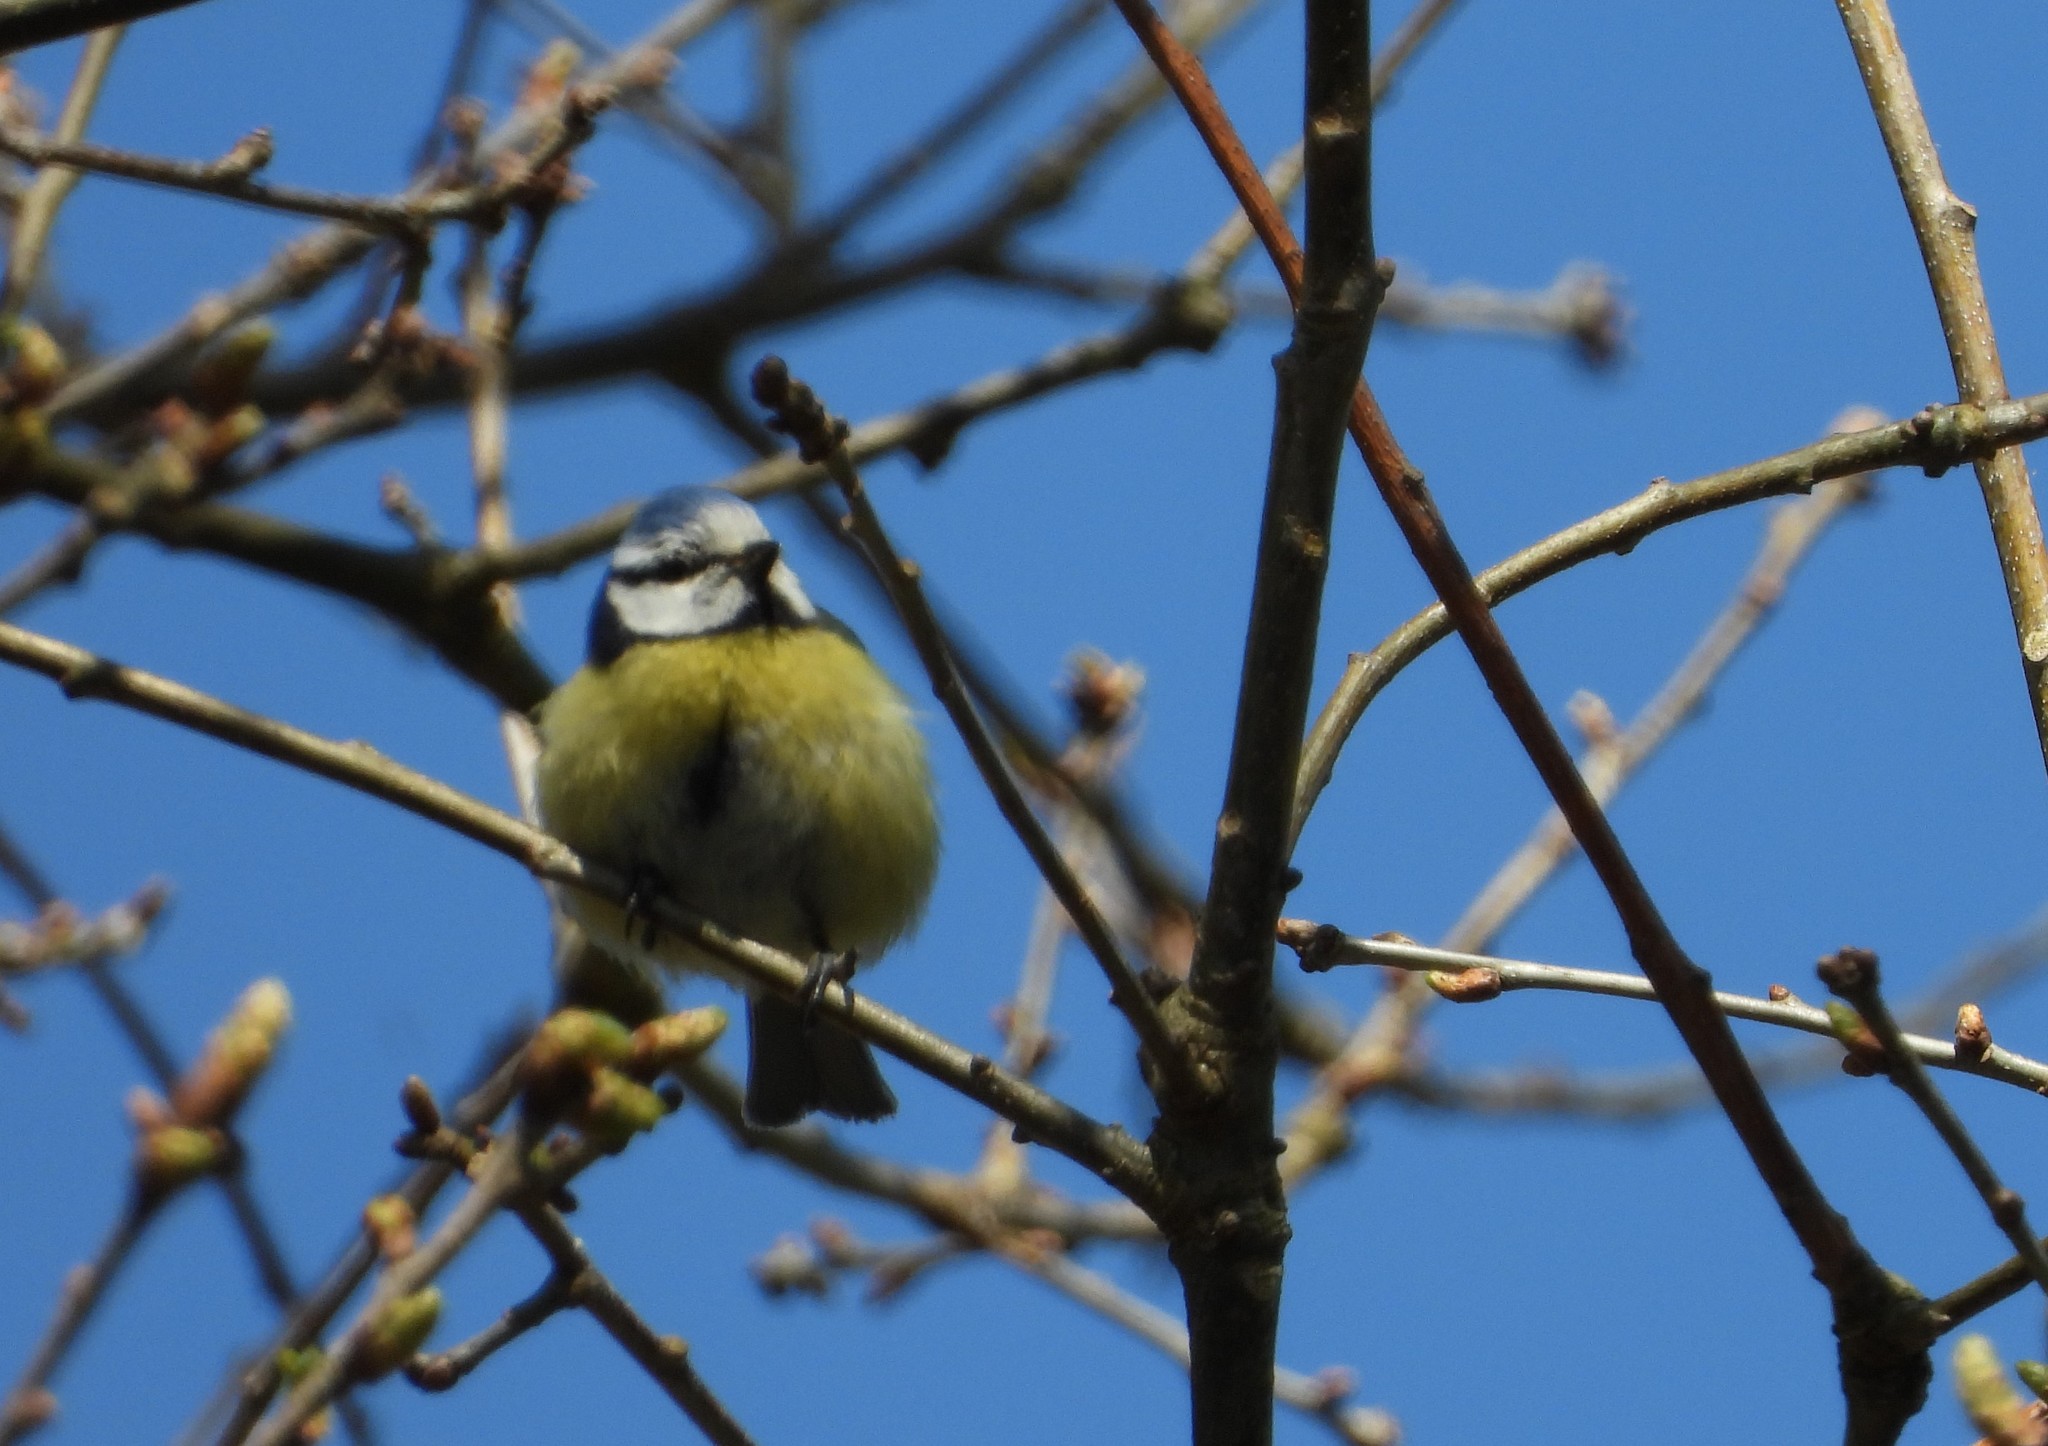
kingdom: Animalia
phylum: Chordata
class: Aves
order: Passeriformes
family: Paridae
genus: Cyanistes
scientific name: Cyanistes caeruleus
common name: Eurasian blue tit
